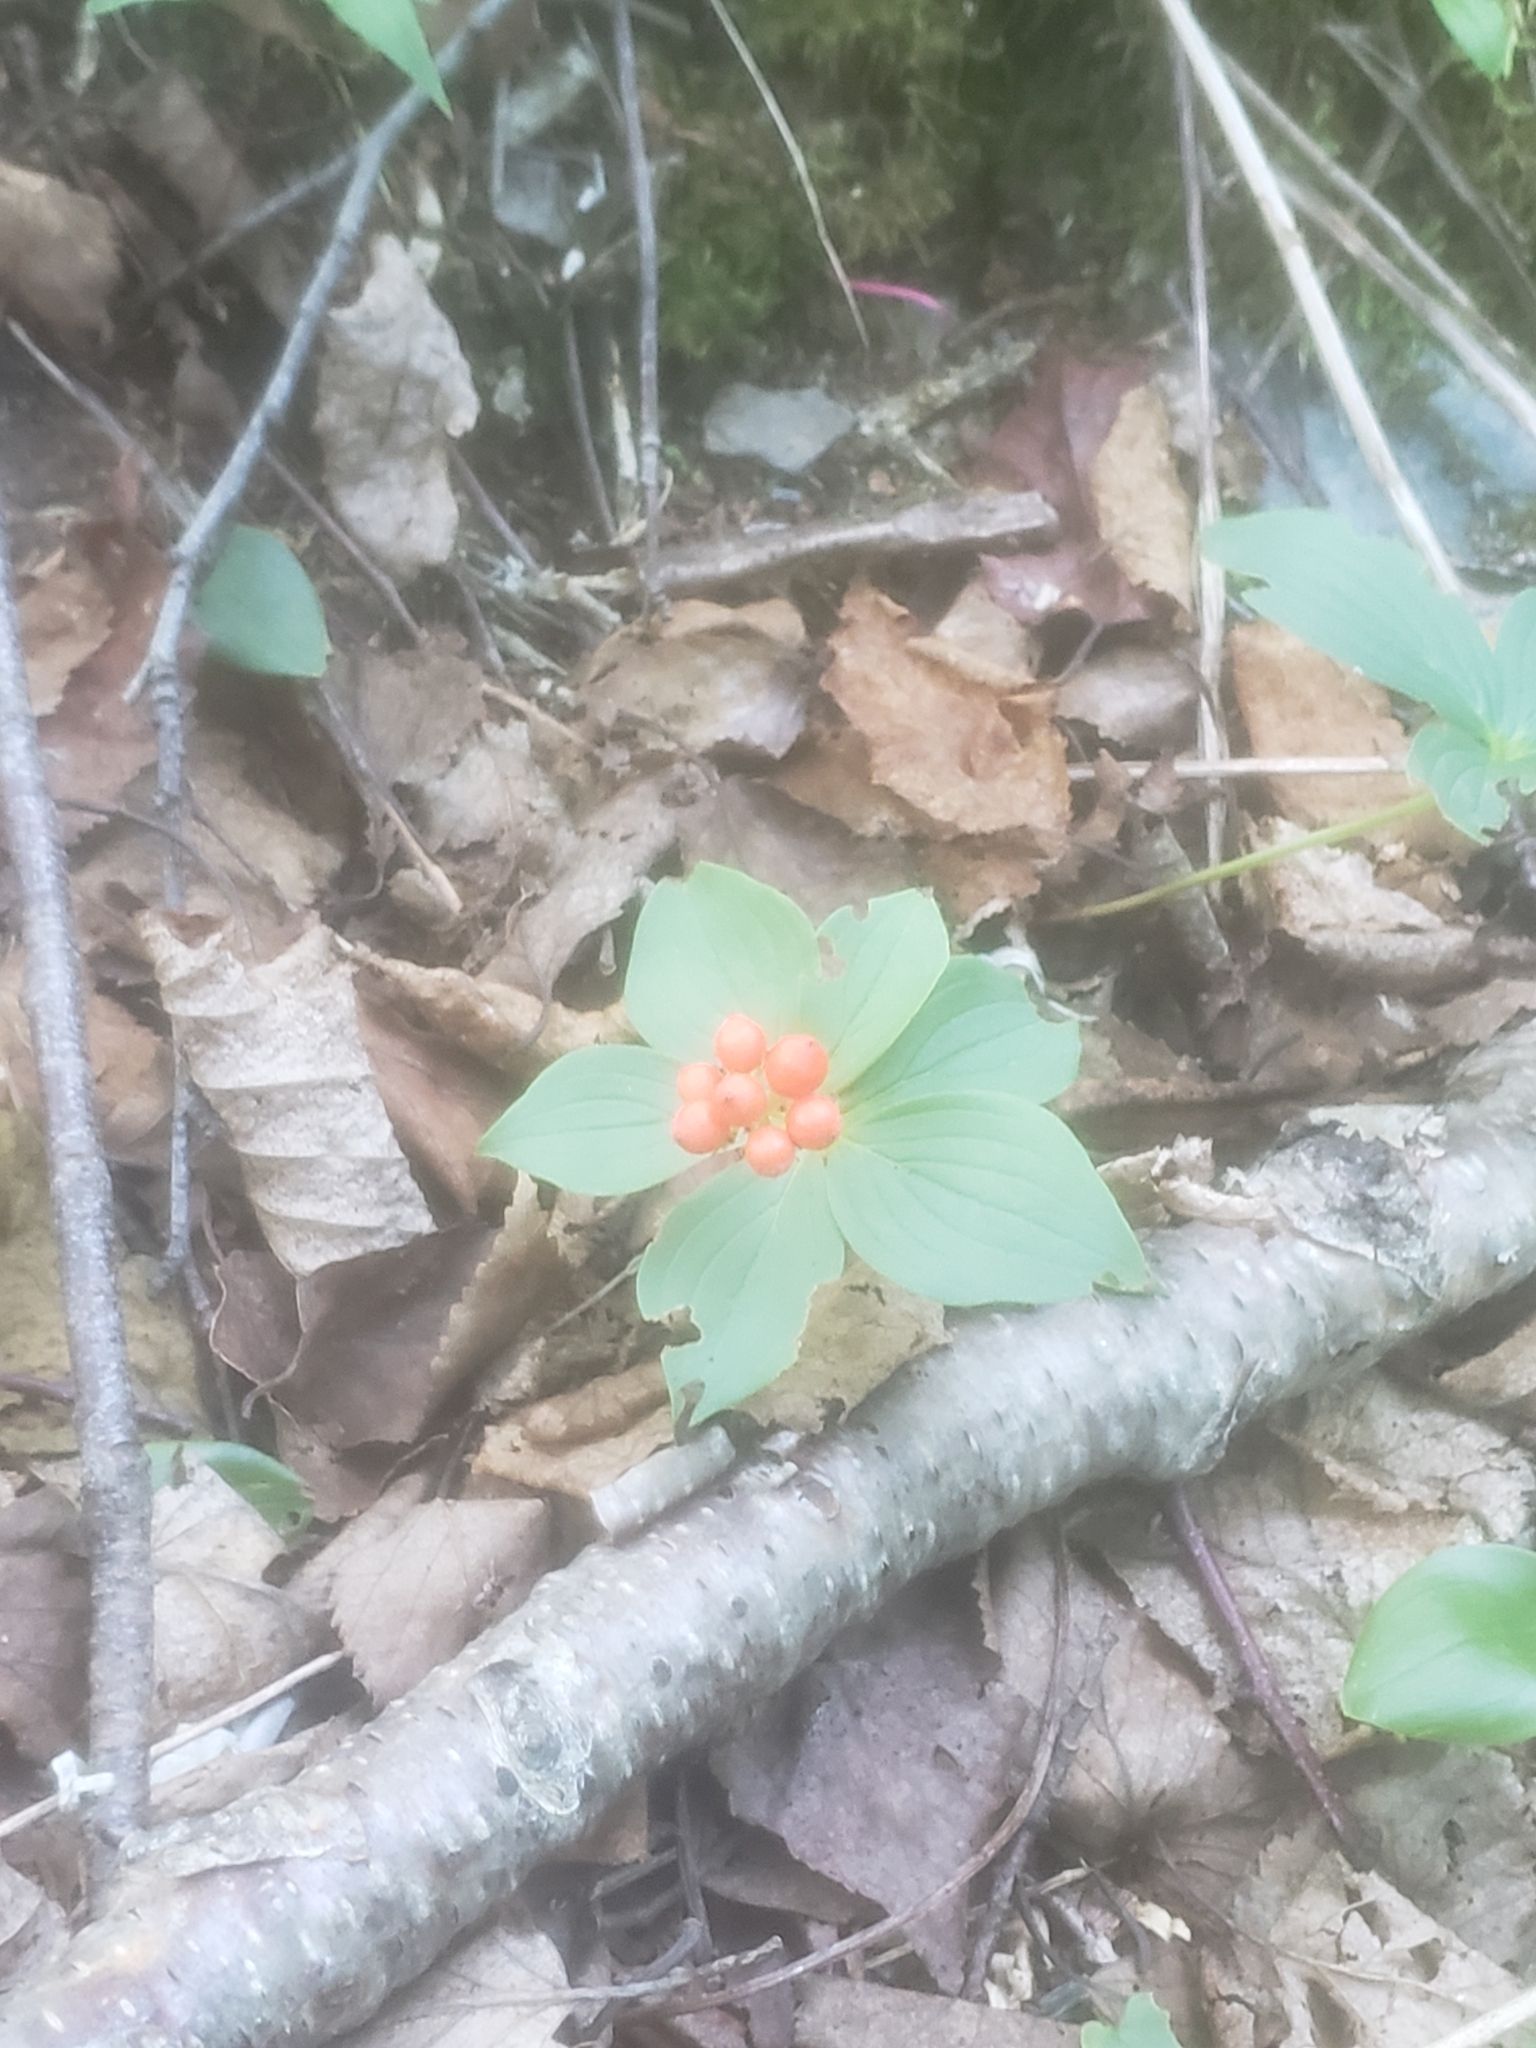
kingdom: Plantae
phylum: Tracheophyta
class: Magnoliopsida
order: Cornales
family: Cornaceae
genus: Cornus
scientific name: Cornus canadensis
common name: Creeping dogwood
